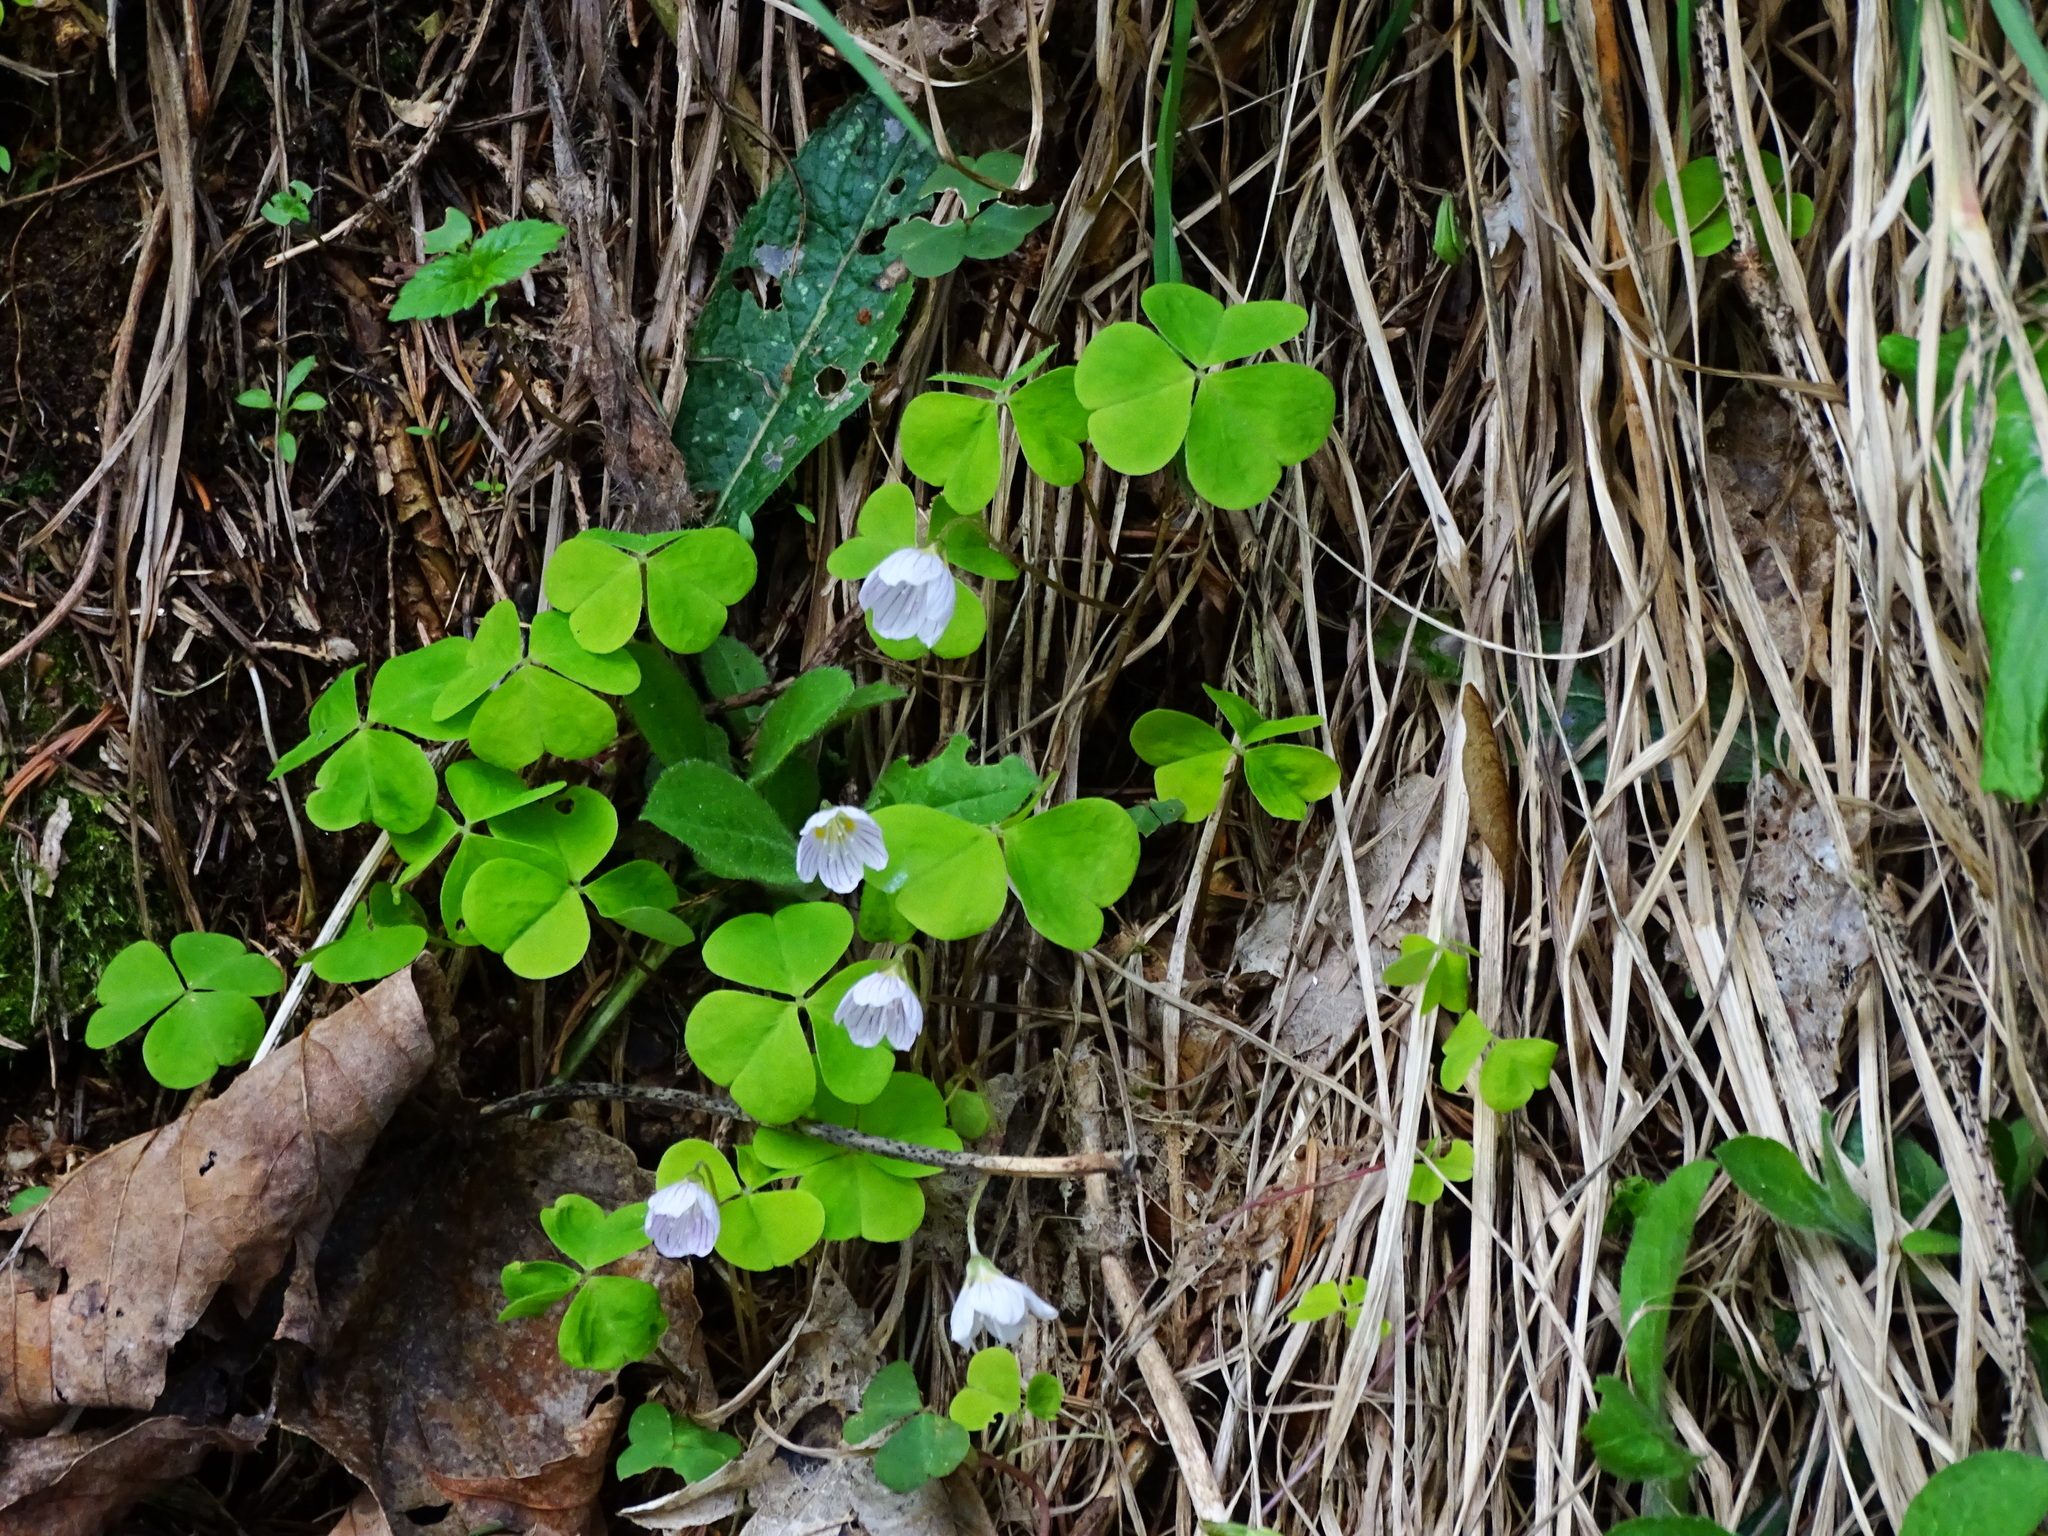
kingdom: Plantae
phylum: Tracheophyta
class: Magnoliopsida
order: Oxalidales
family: Oxalidaceae
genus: Oxalis
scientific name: Oxalis acetosella
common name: Wood-sorrel
